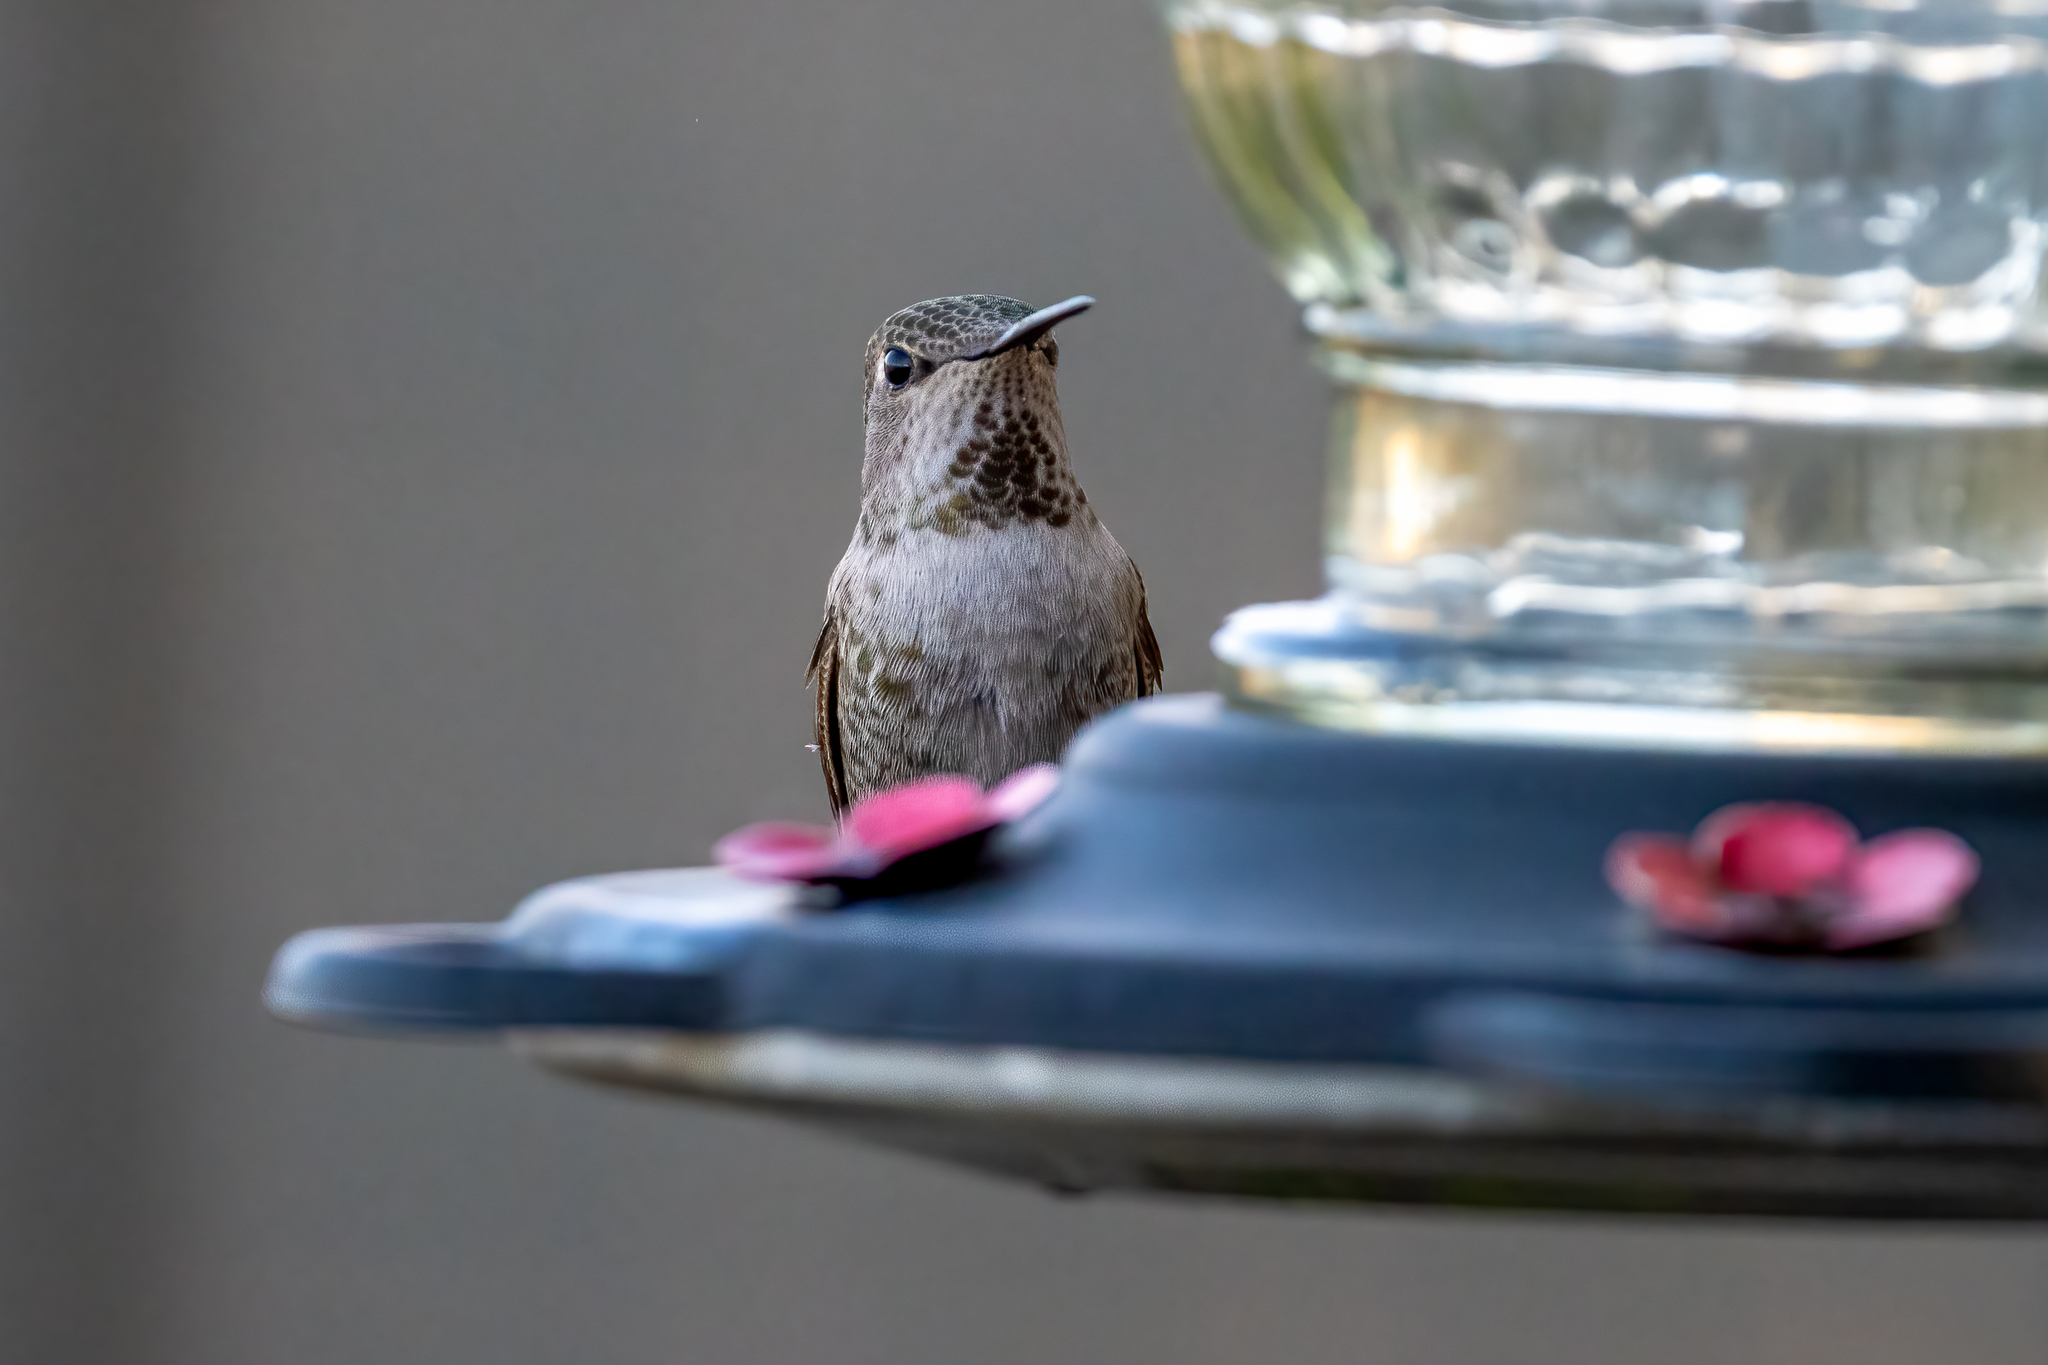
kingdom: Animalia
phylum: Chordata
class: Aves
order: Apodiformes
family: Trochilidae
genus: Calypte
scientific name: Calypte anna
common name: Anna's hummingbird
